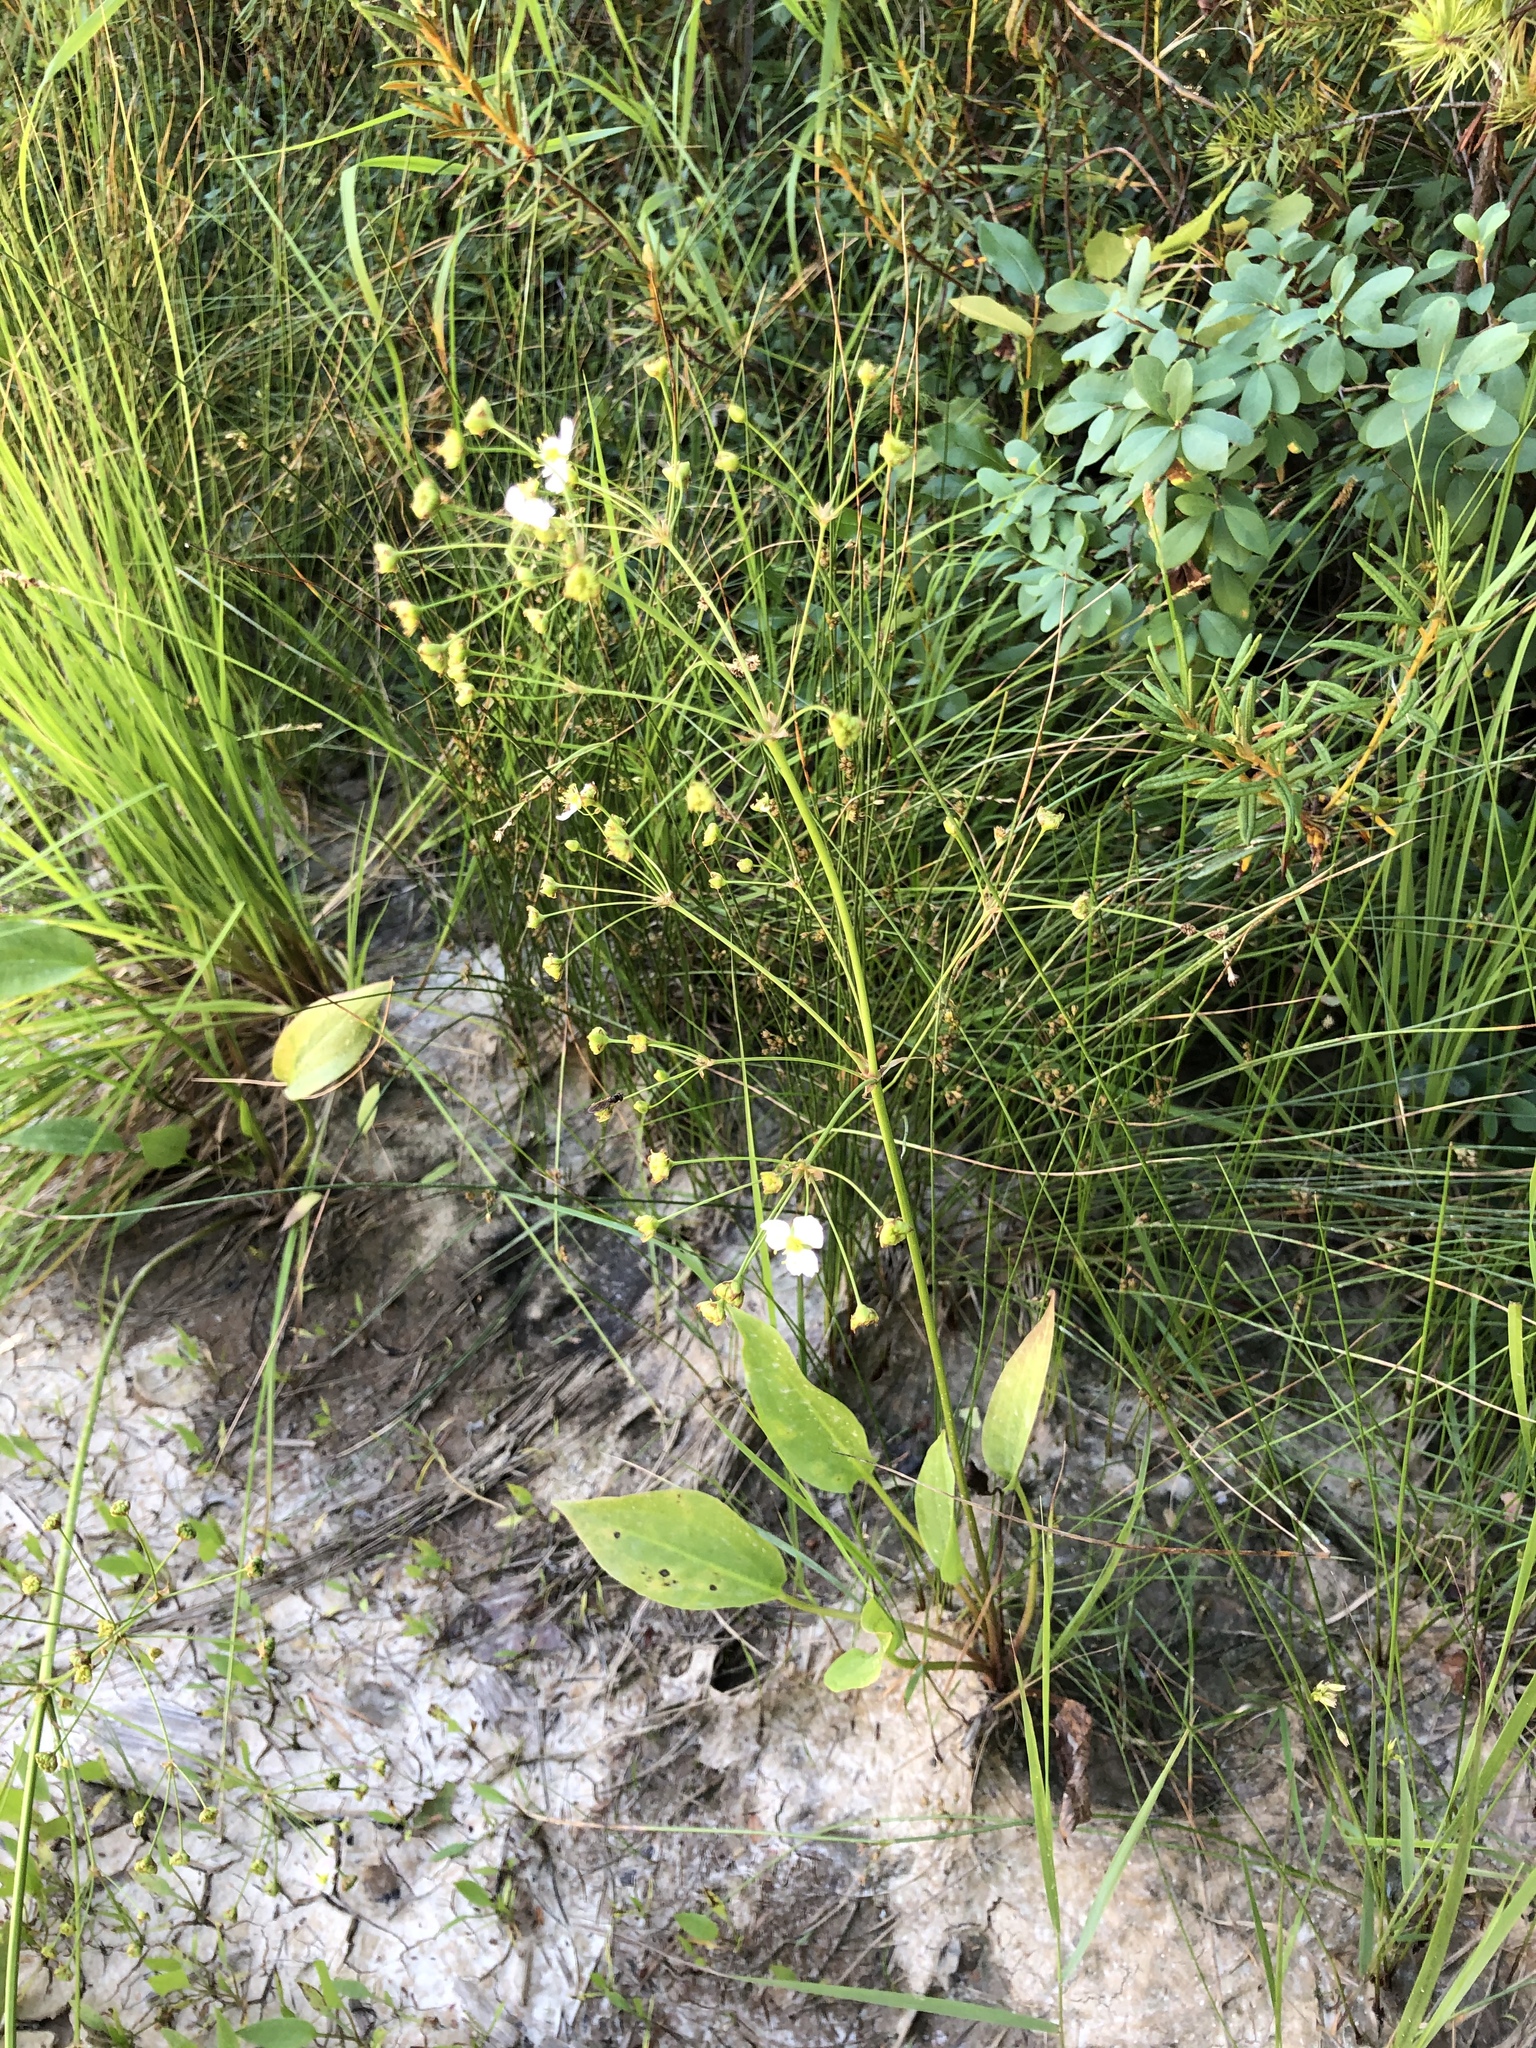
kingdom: Plantae
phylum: Tracheophyta
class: Liliopsida
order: Alismatales
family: Alismataceae
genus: Alisma
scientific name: Alisma plantago-aquatica
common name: Water-plantain
